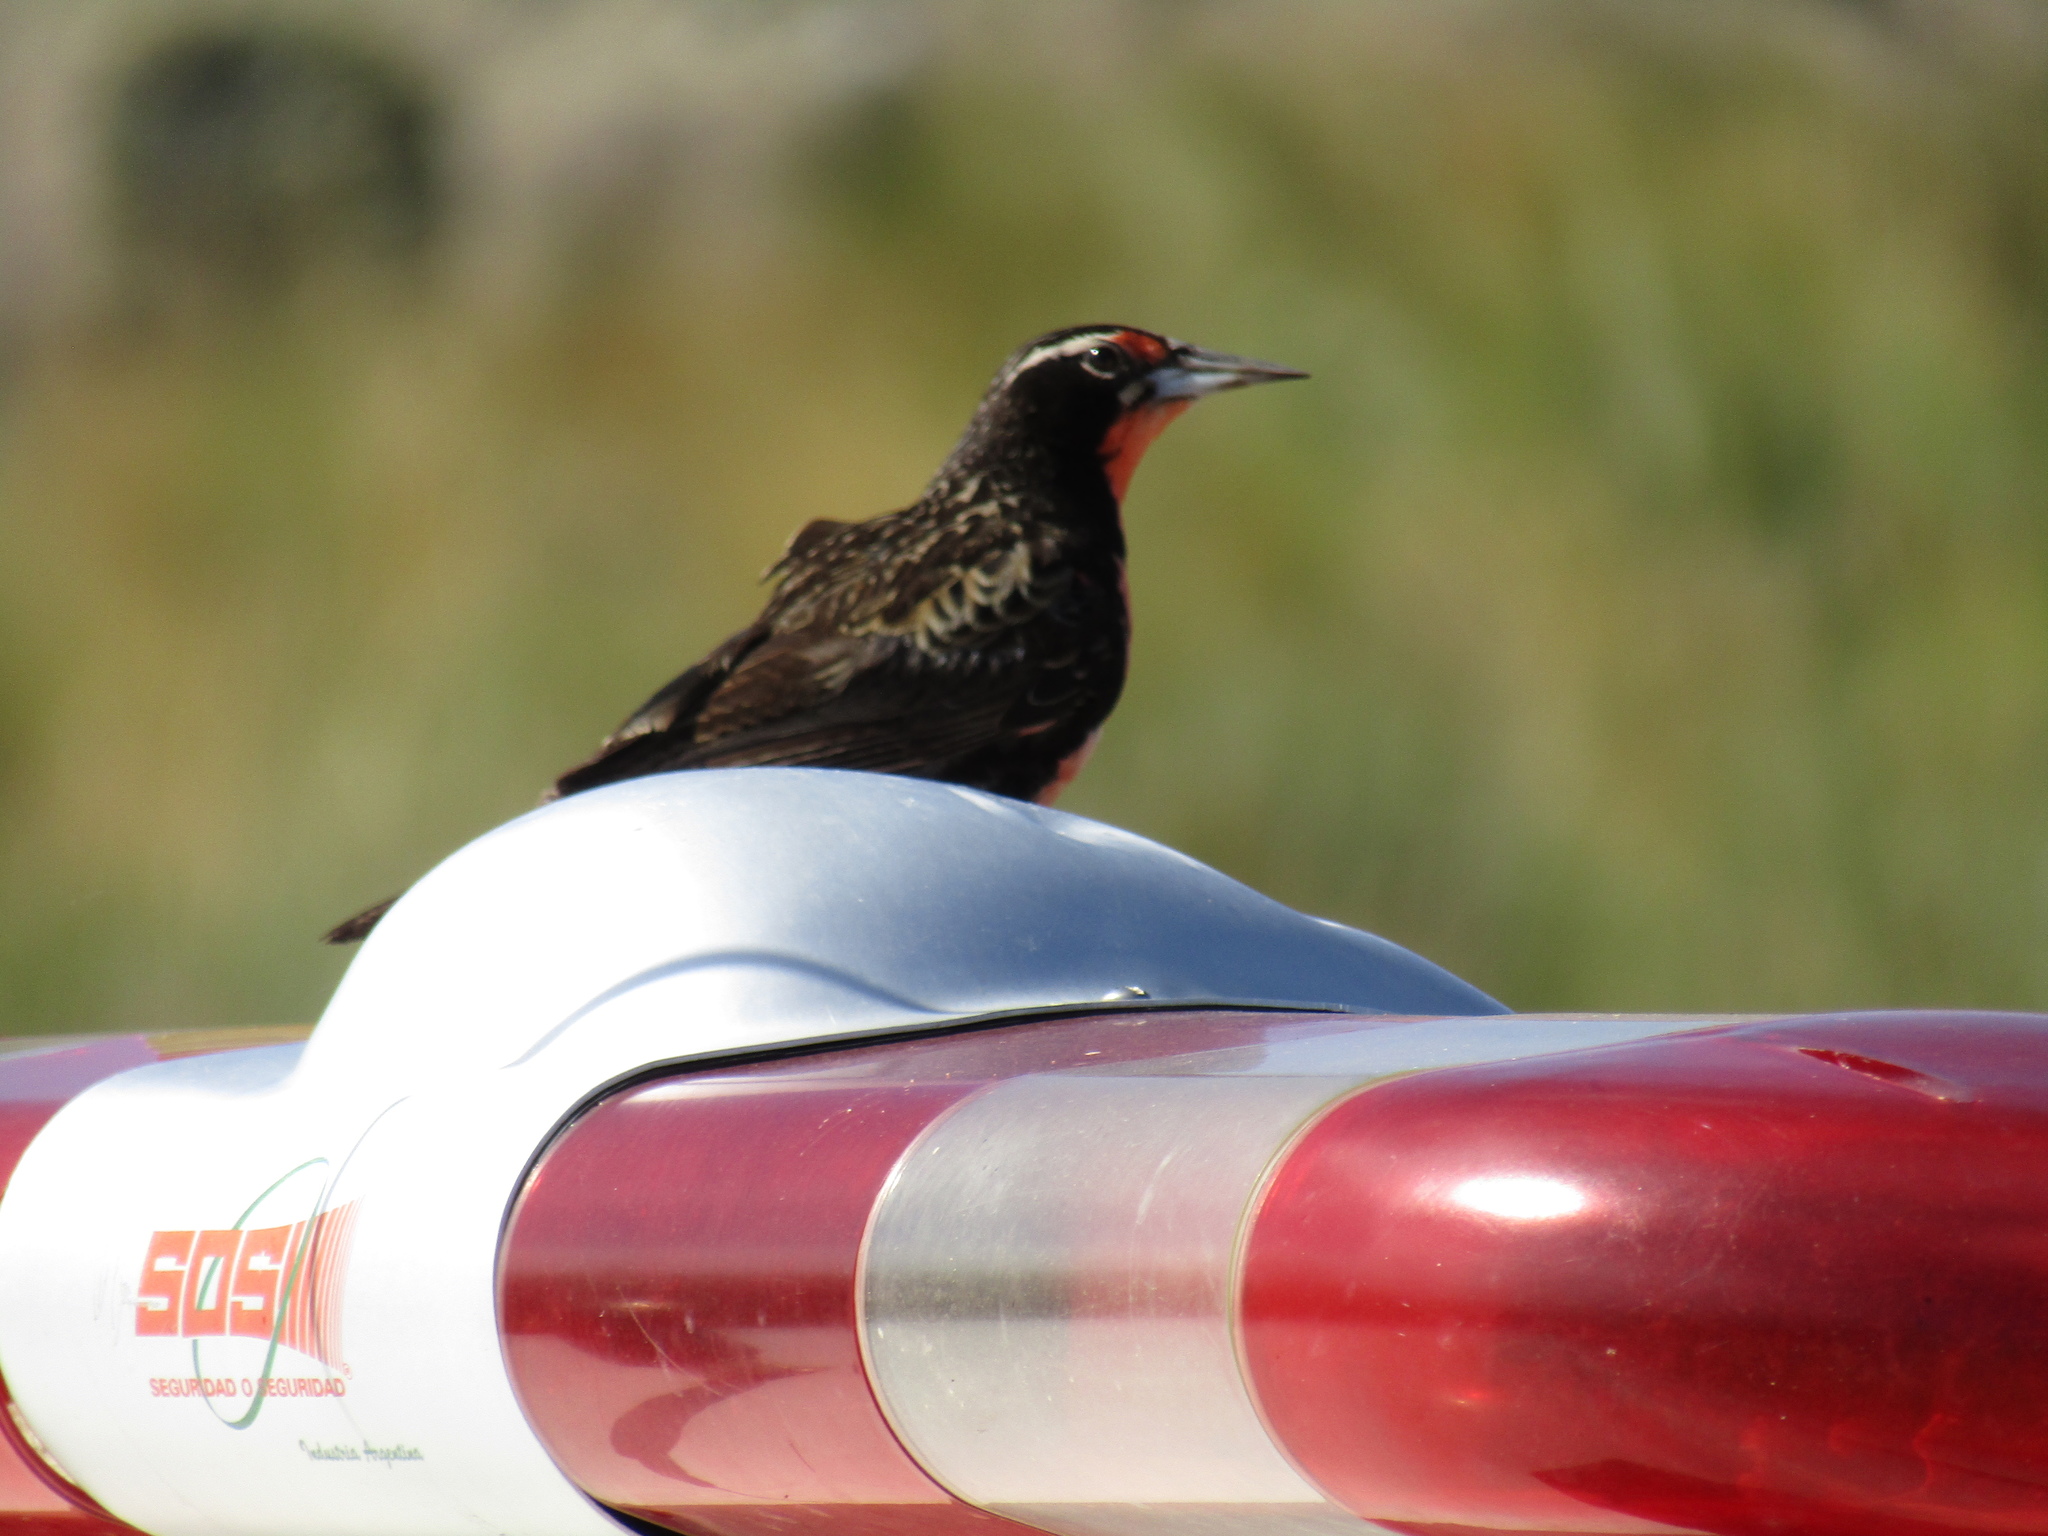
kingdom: Animalia
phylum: Chordata
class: Aves
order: Passeriformes
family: Icteridae
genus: Sturnella
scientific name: Sturnella loyca
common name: Long-tailed meadowlark
